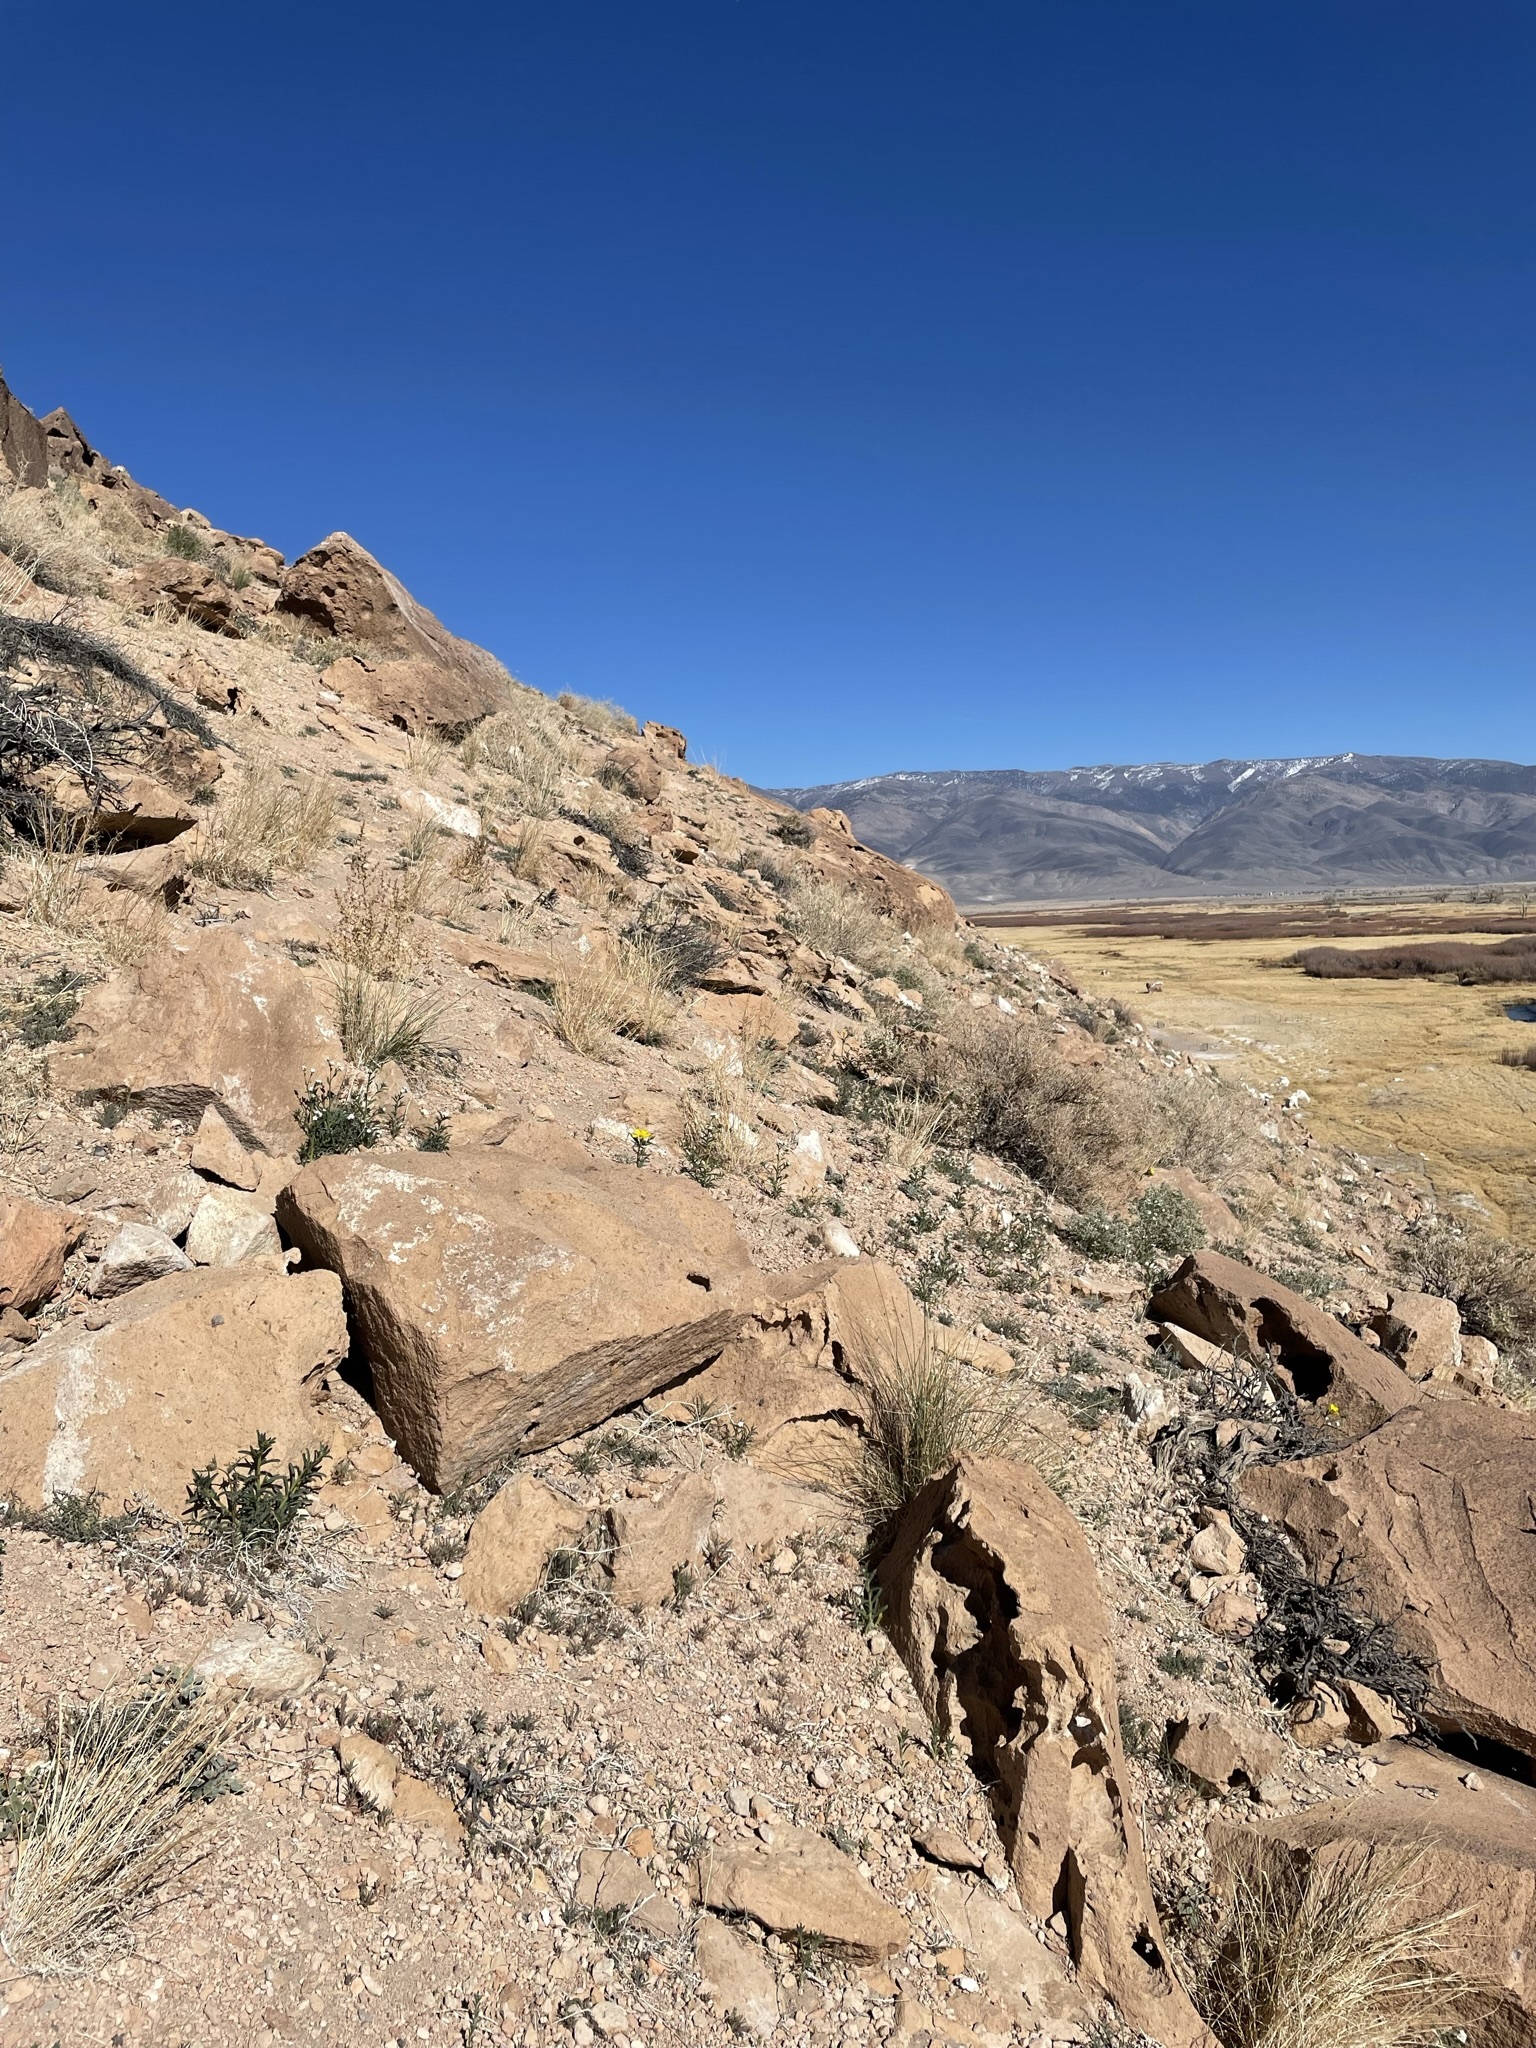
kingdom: Plantae
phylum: Tracheophyta
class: Magnoliopsida
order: Cornales
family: Loasaceae
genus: Mentzelia
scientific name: Mentzelia nitens
